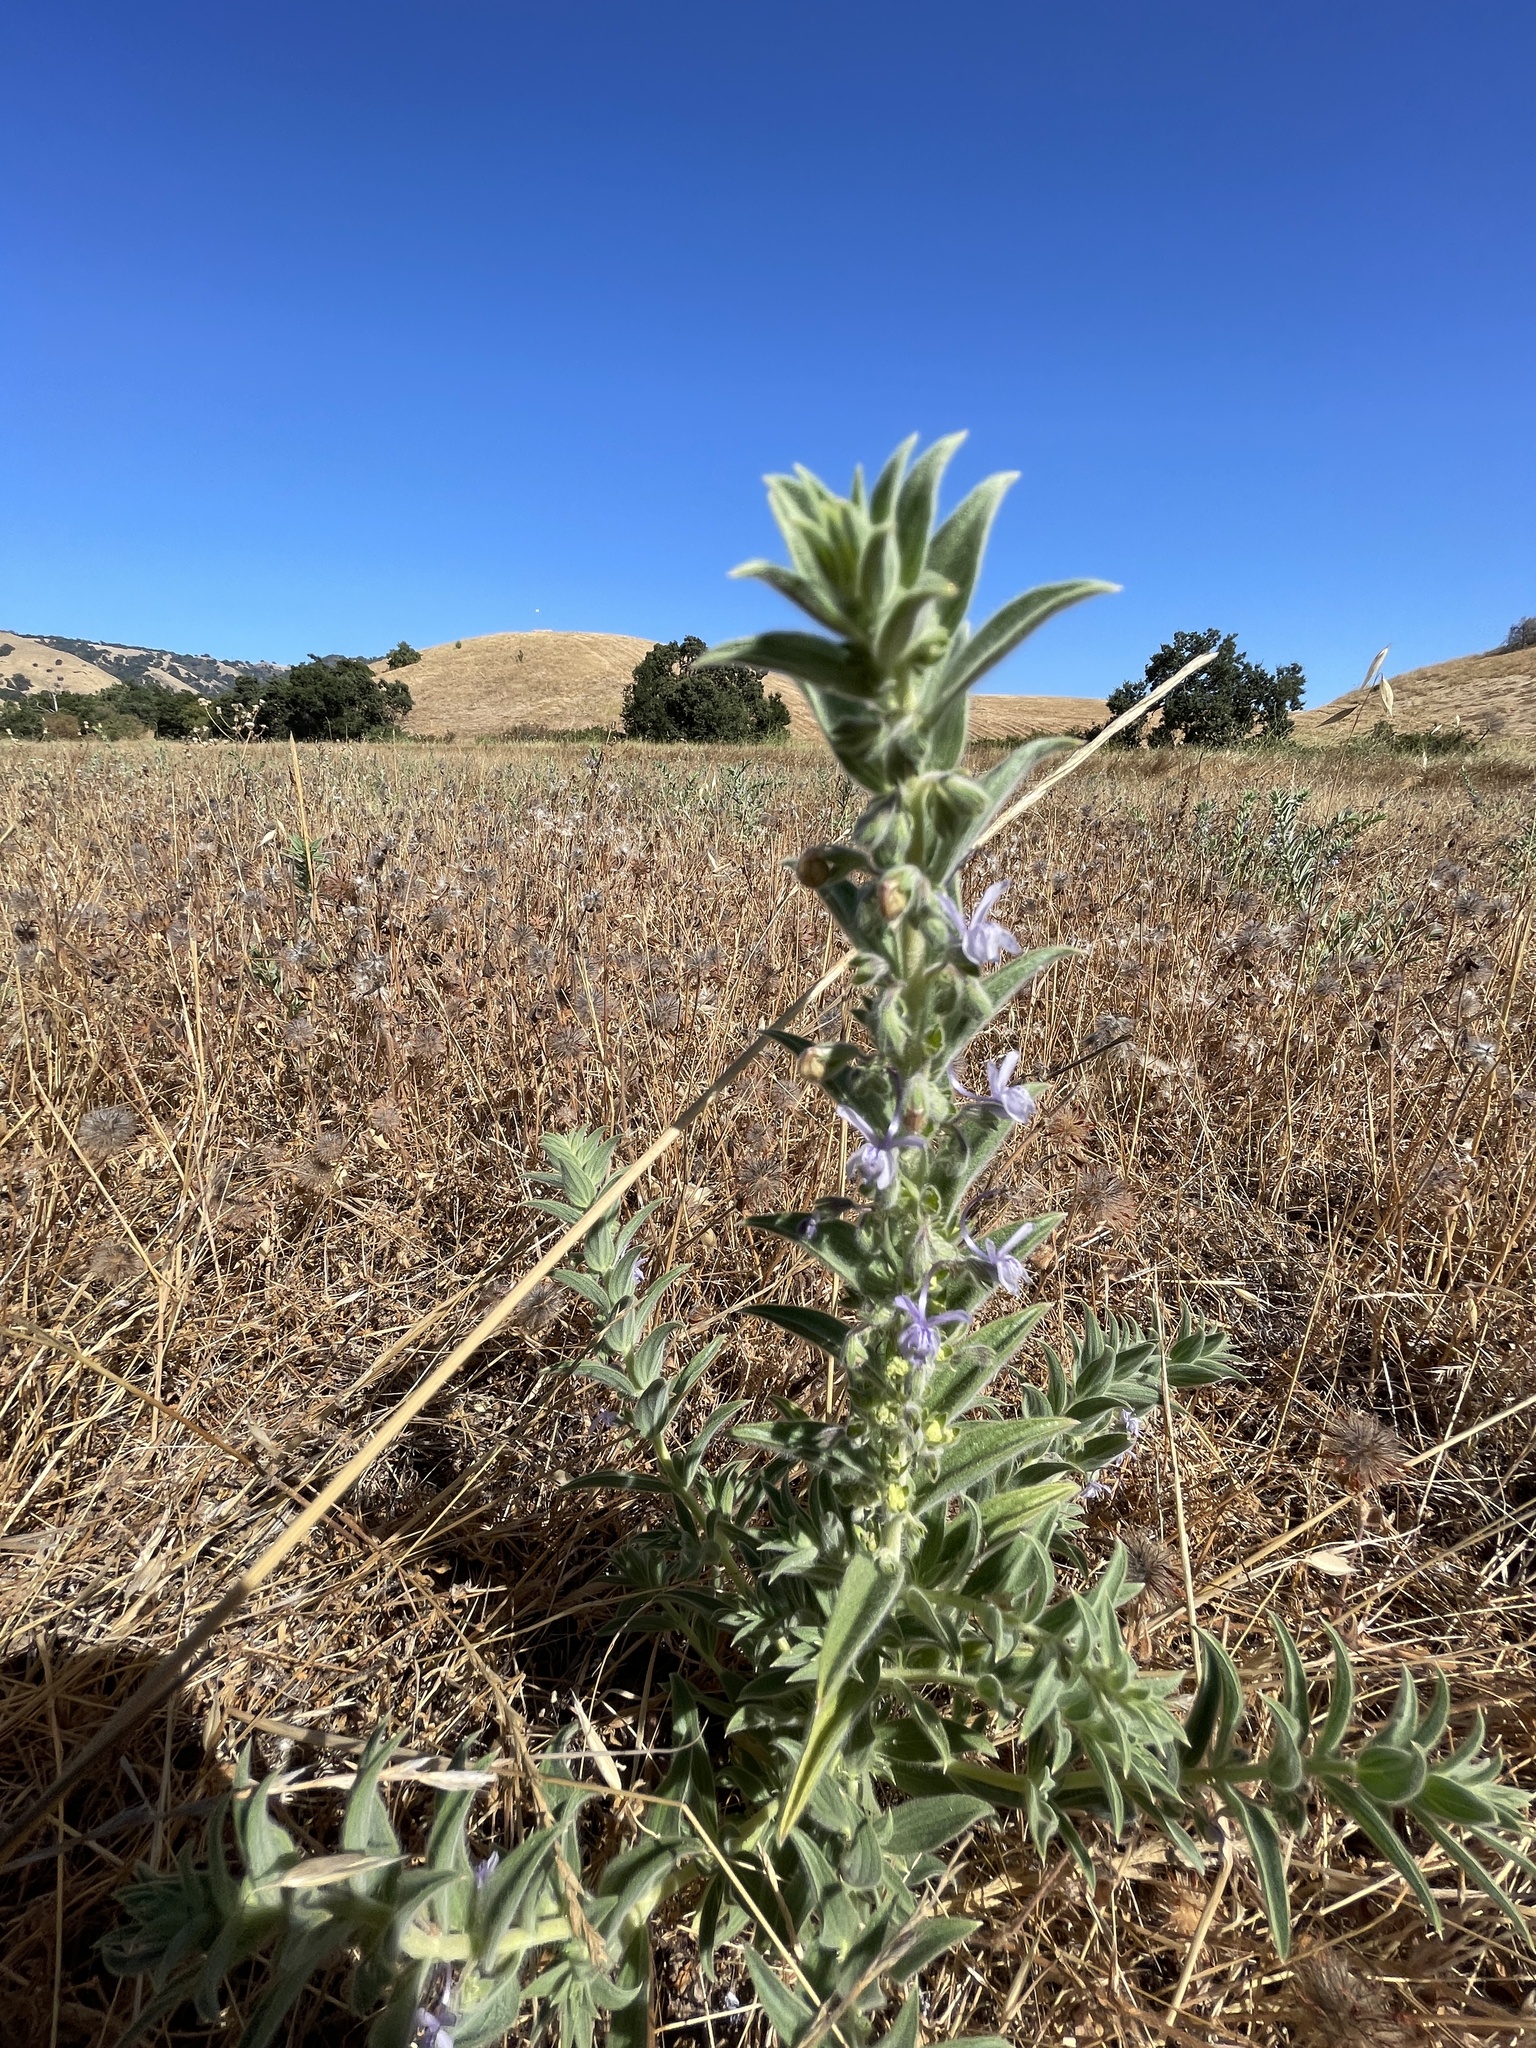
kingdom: Plantae
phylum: Tracheophyta
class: Magnoliopsida
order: Lamiales
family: Lamiaceae
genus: Trichostema
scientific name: Trichostema lanceolatum
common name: Vinegar-weed
